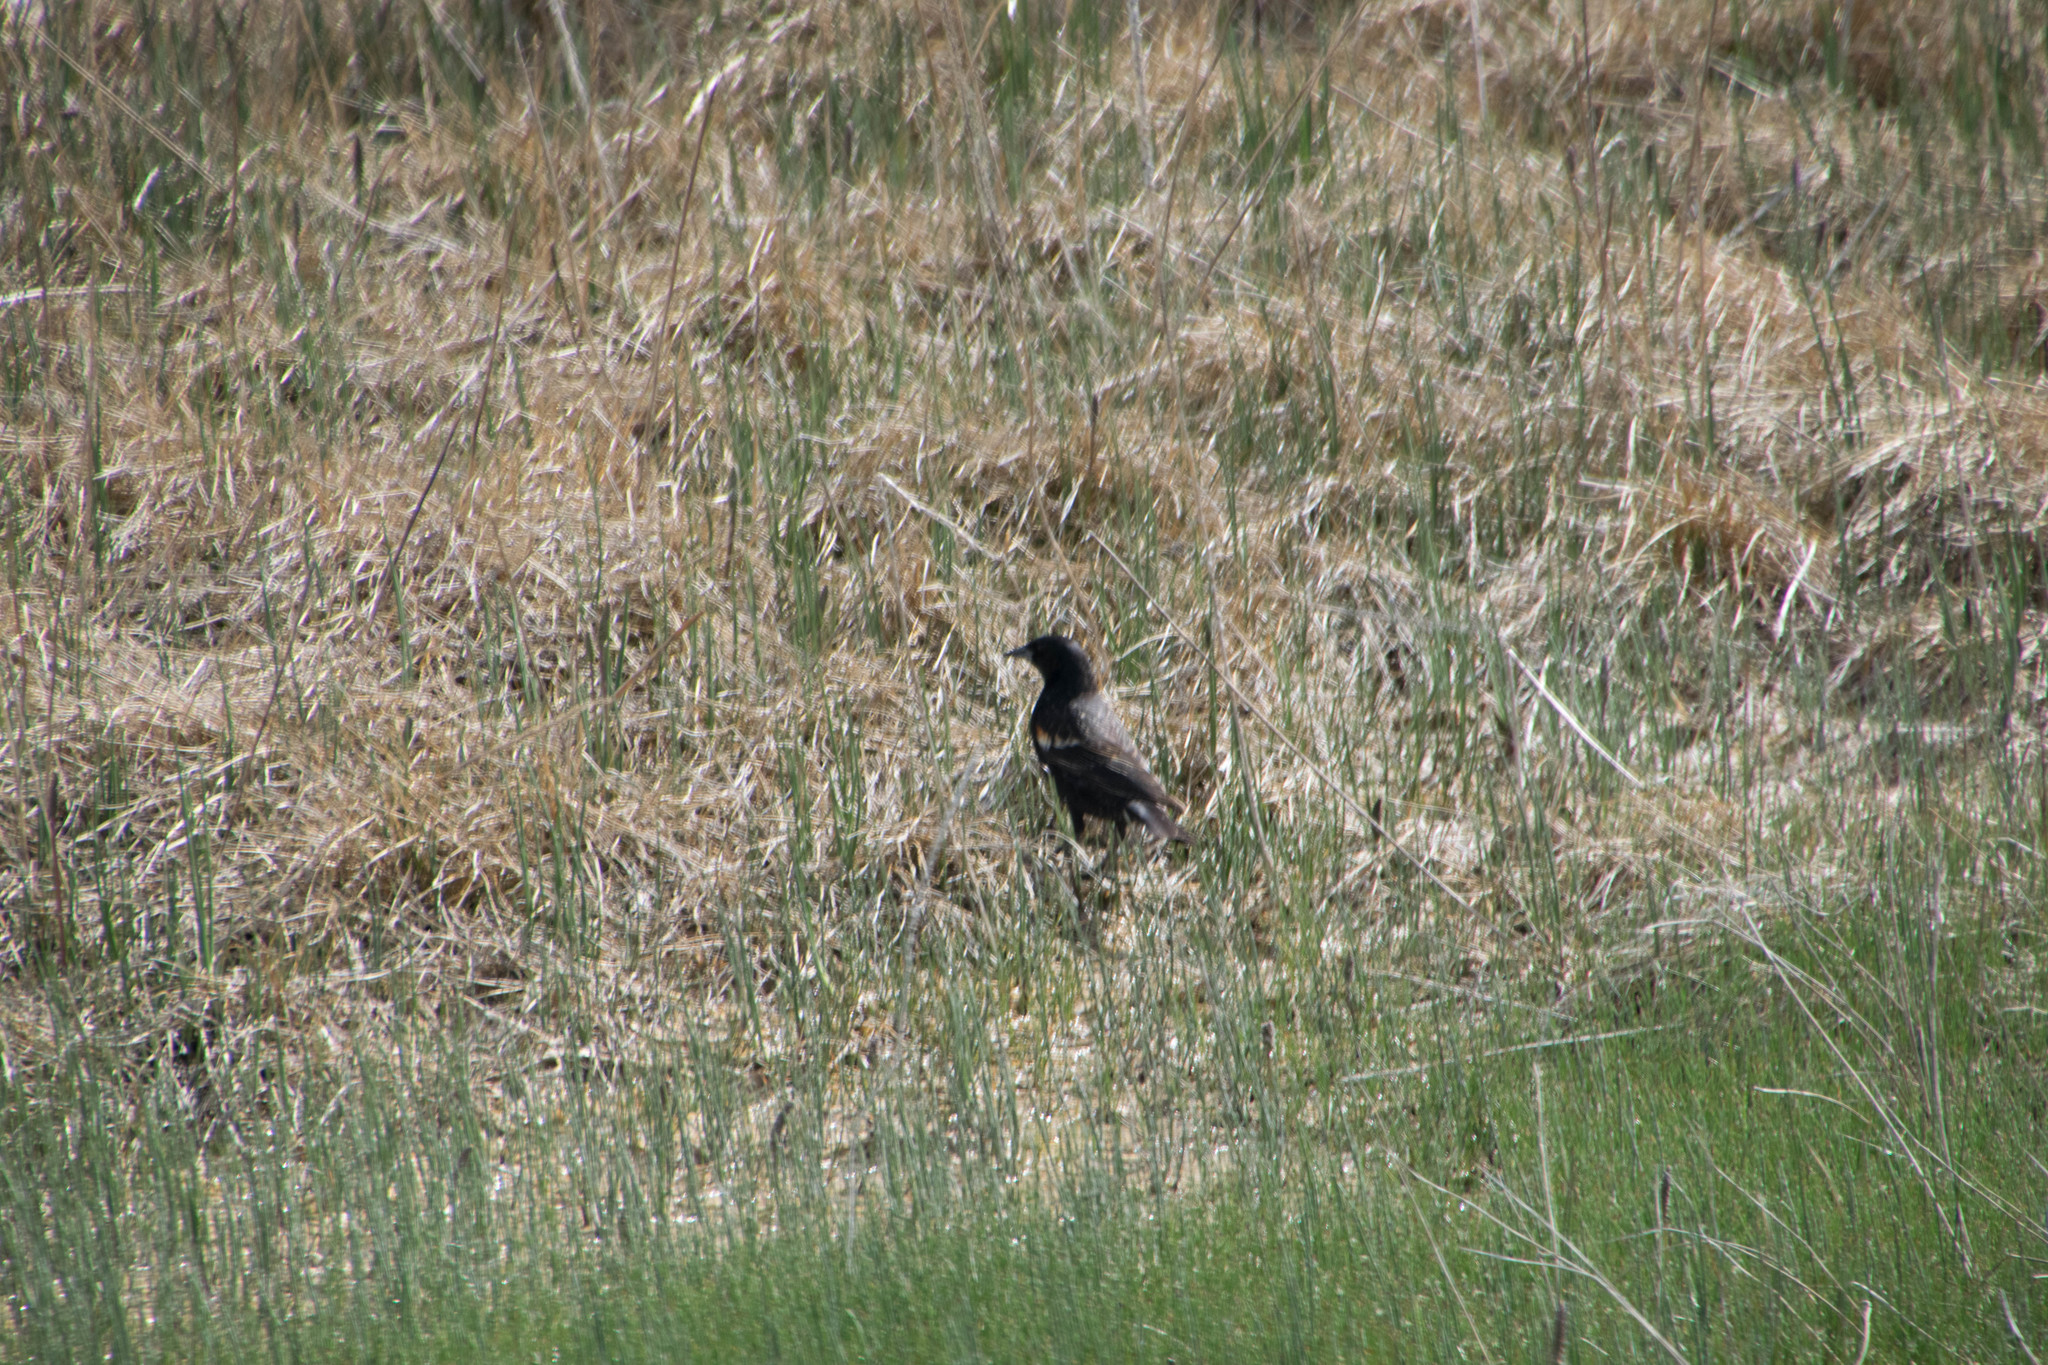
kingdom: Animalia
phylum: Chordata
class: Aves
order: Passeriformes
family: Icteridae
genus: Agelaius
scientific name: Agelaius phoeniceus
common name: Red-winged blackbird
